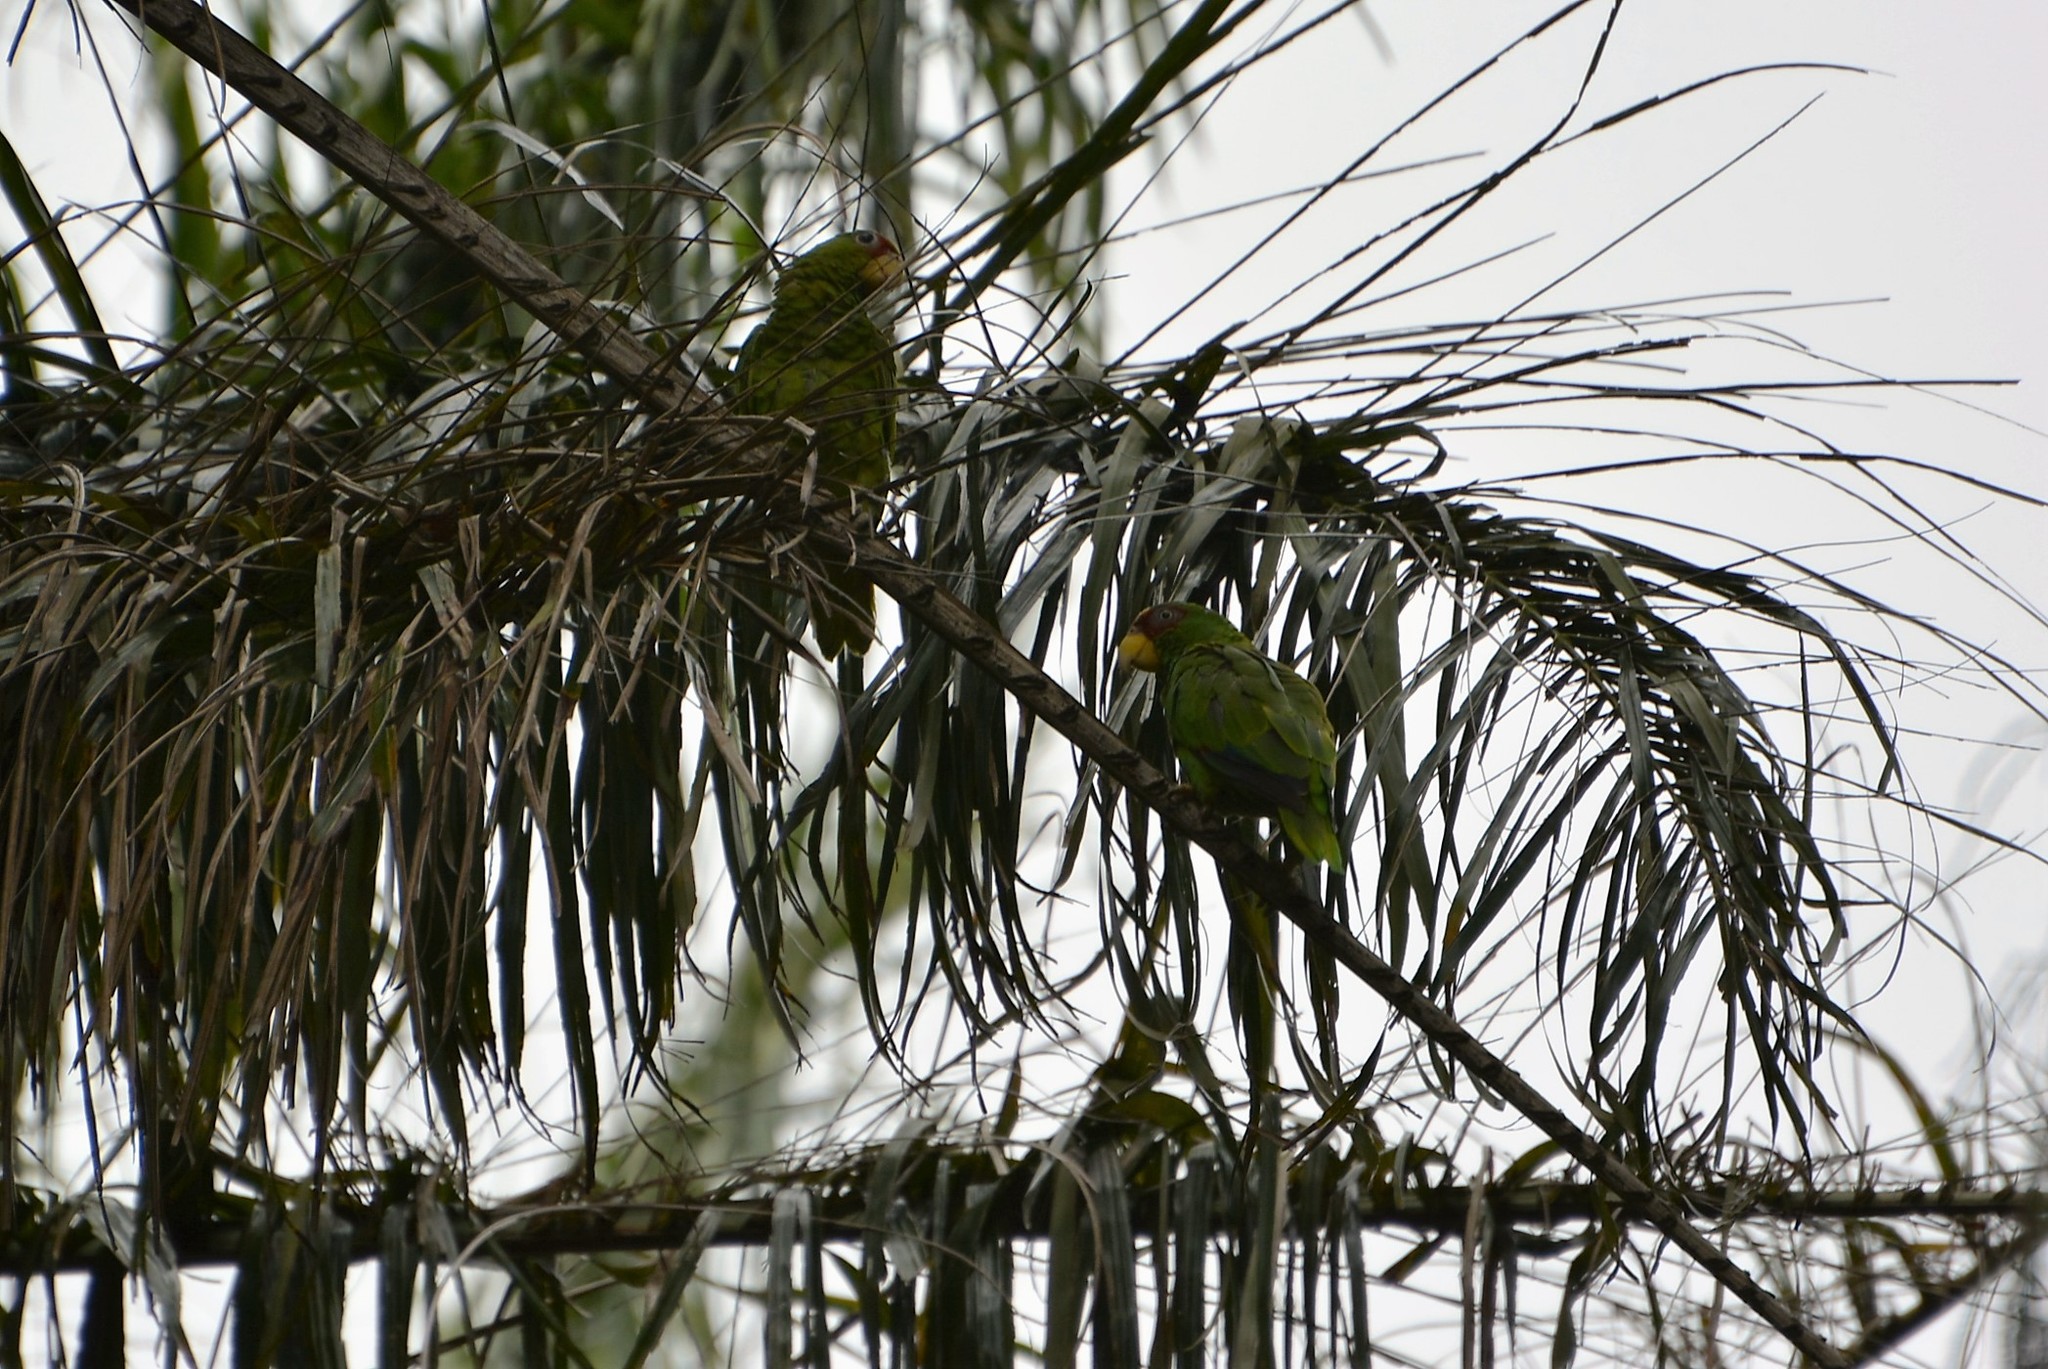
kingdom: Animalia
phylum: Chordata
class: Aves
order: Psittaciformes
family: Psittacidae
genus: Amazona
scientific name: Amazona albifrons
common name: White-fronted amazon
